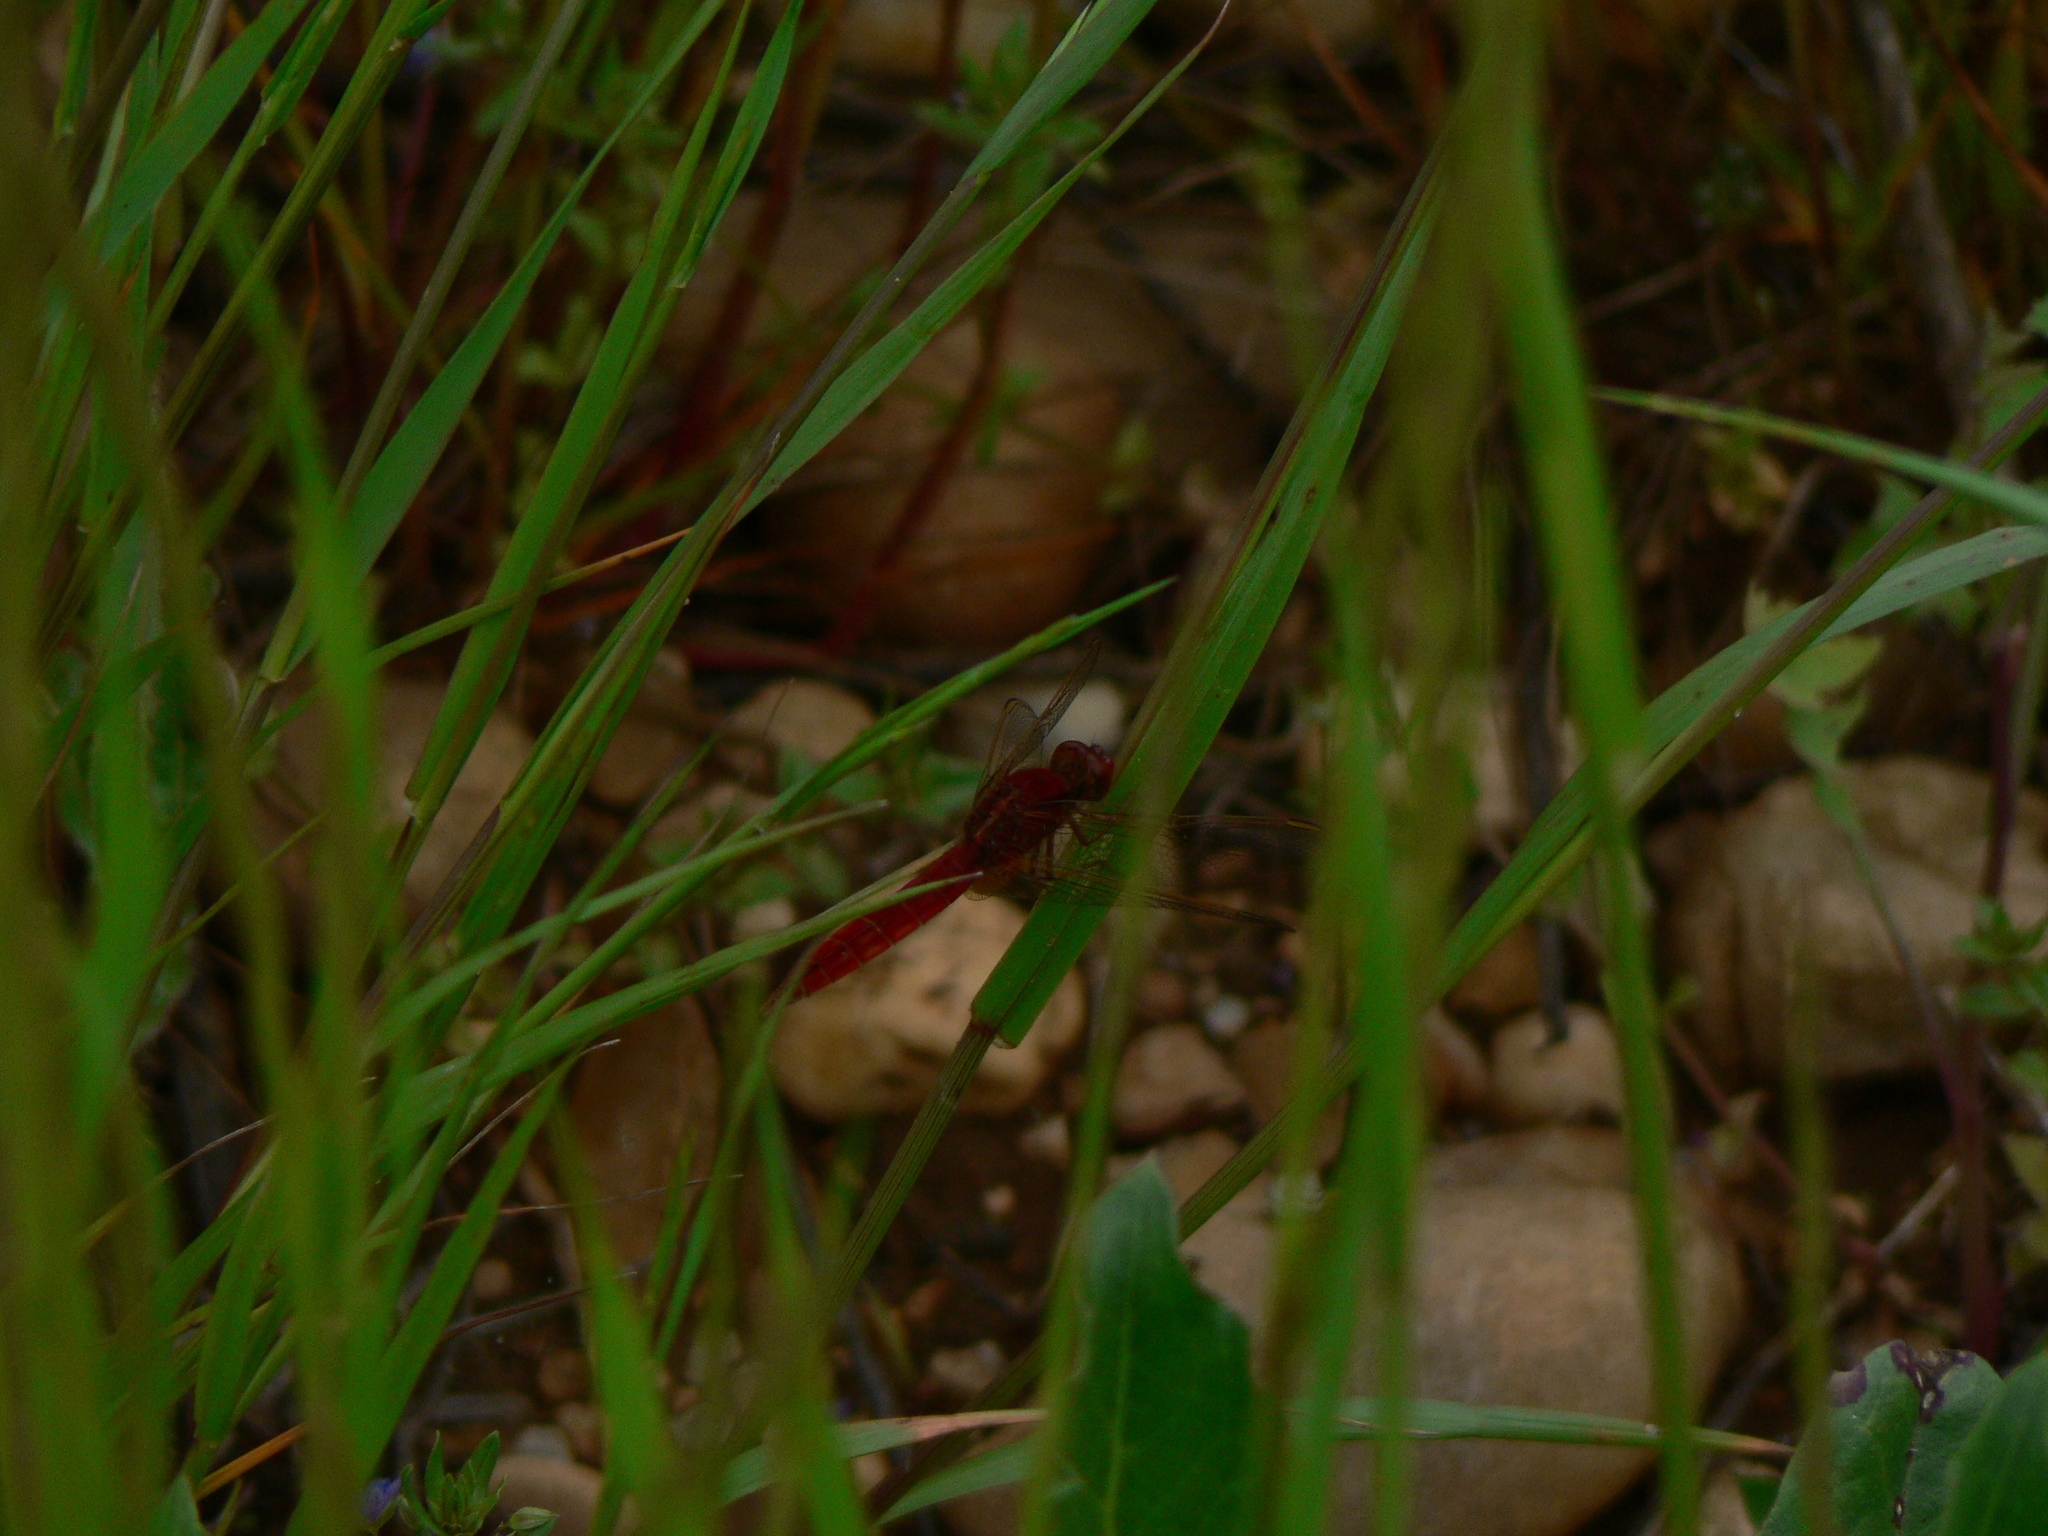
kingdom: Animalia
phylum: Arthropoda
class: Insecta
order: Odonata
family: Libellulidae
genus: Crocothemis
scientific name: Crocothemis erythraea
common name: Scarlet dragonfly
